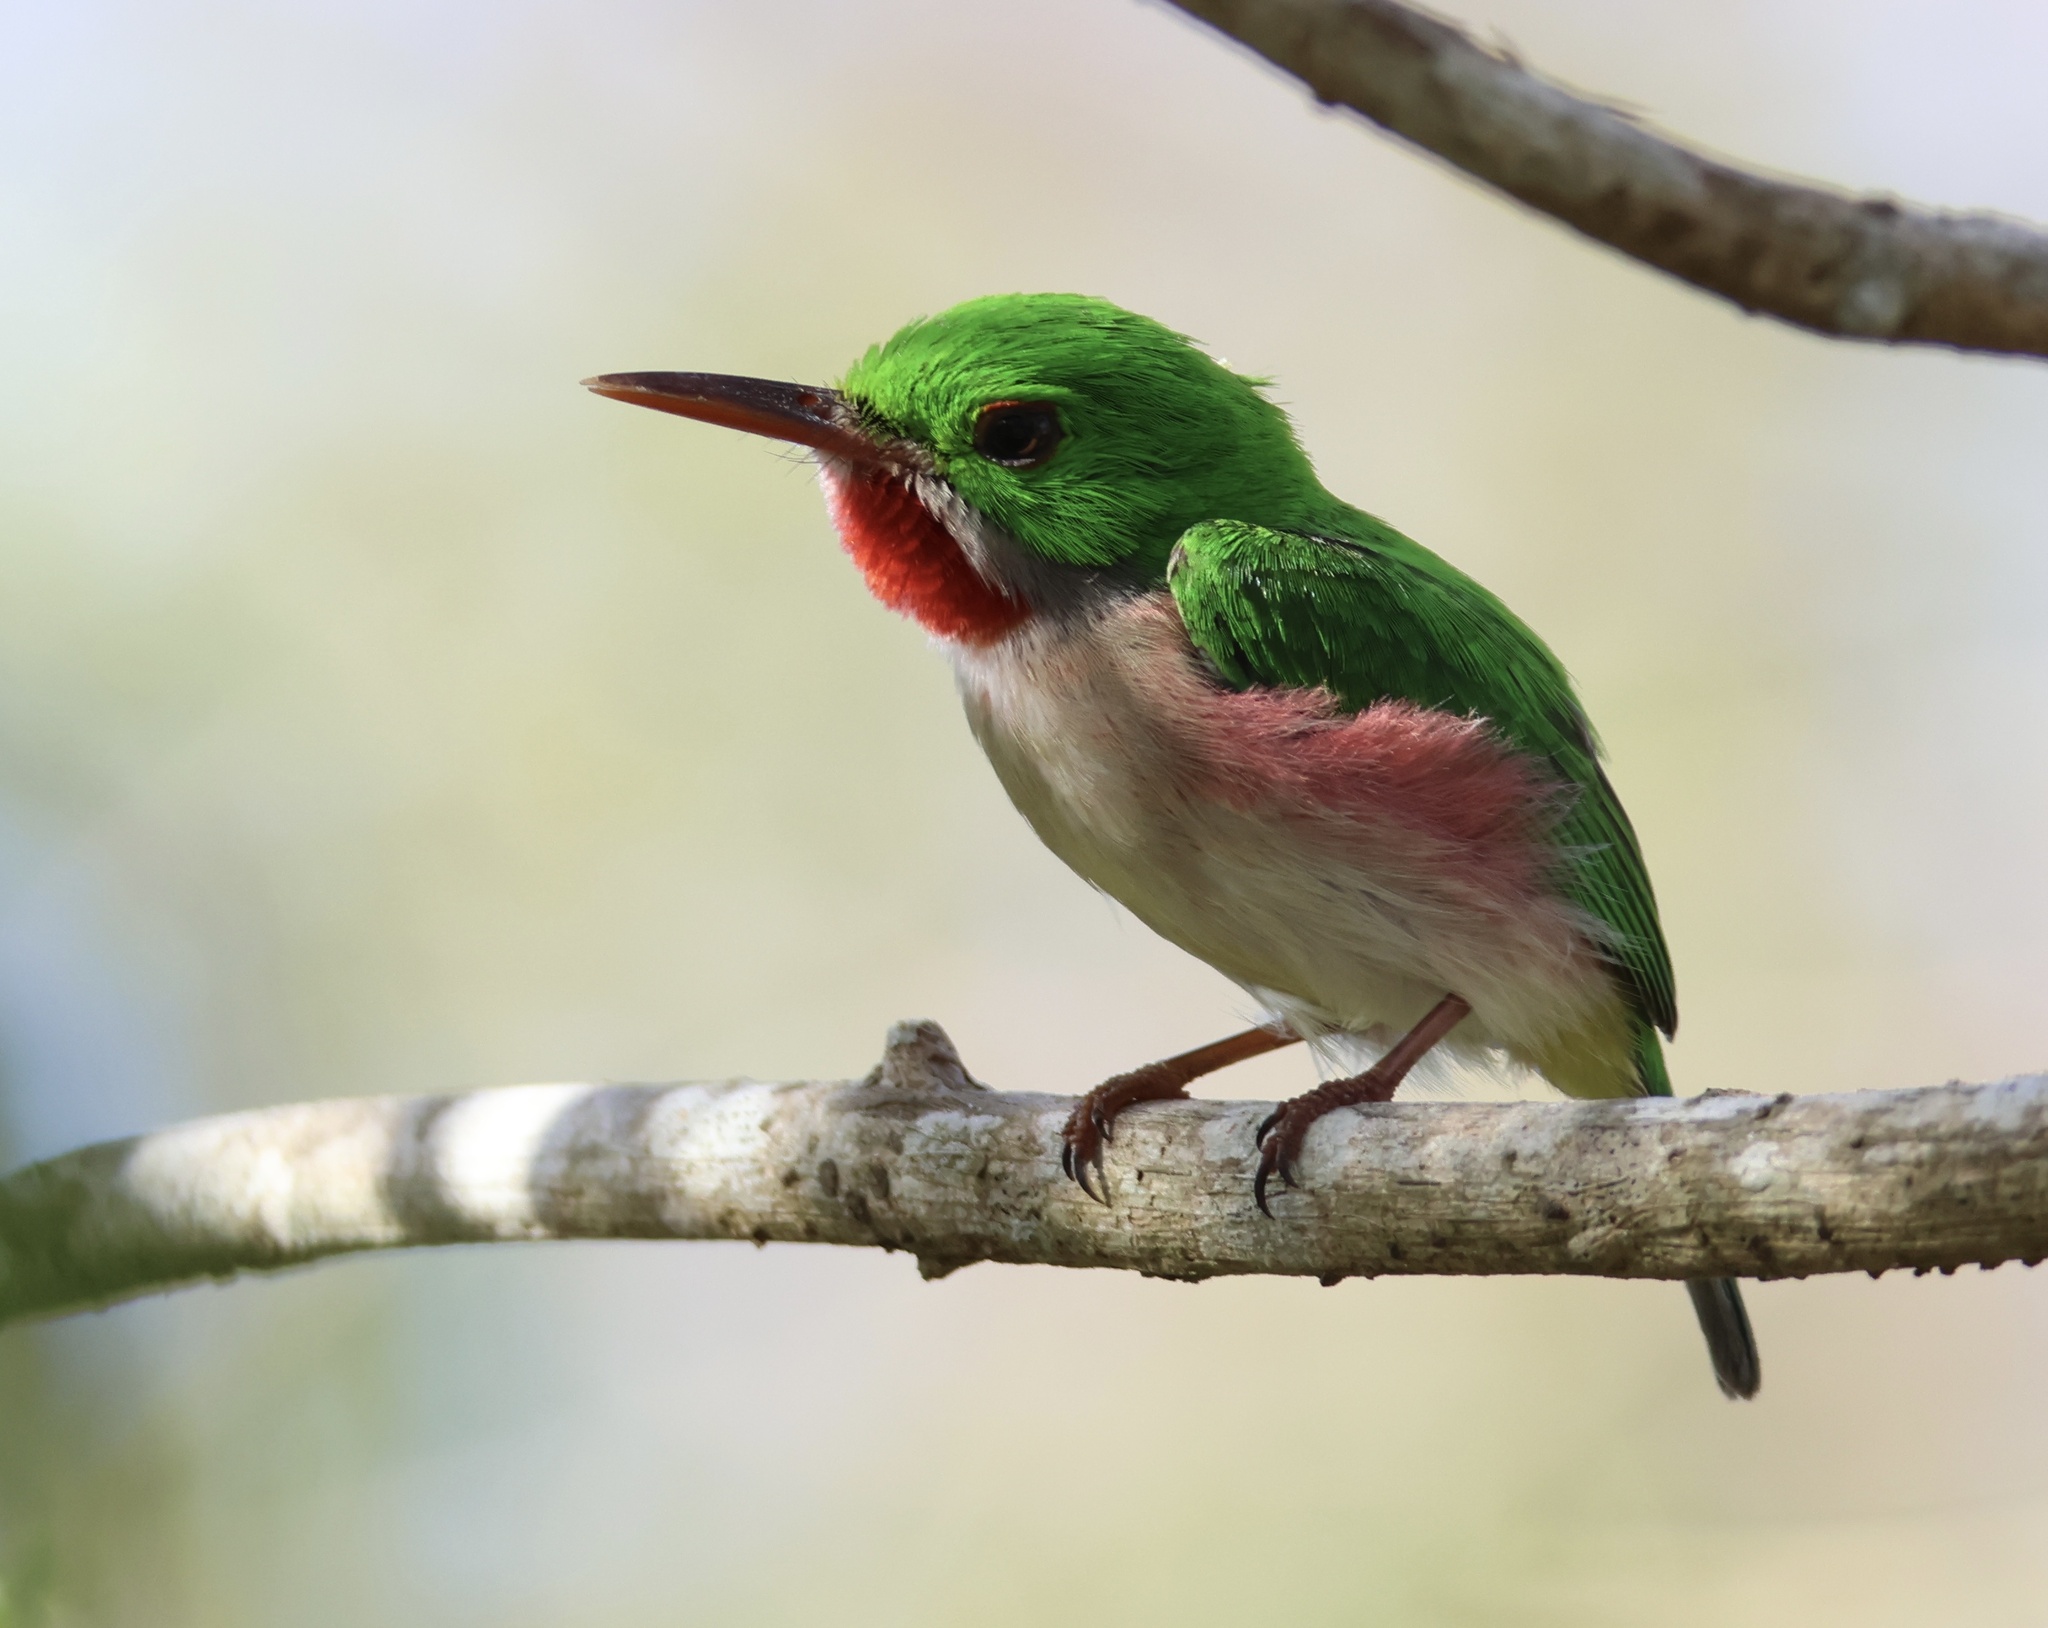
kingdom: Animalia
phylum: Chordata
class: Aves
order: Coraciiformes
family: Todidae
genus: Todus
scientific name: Todus subulatus
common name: Broad-billed tody
